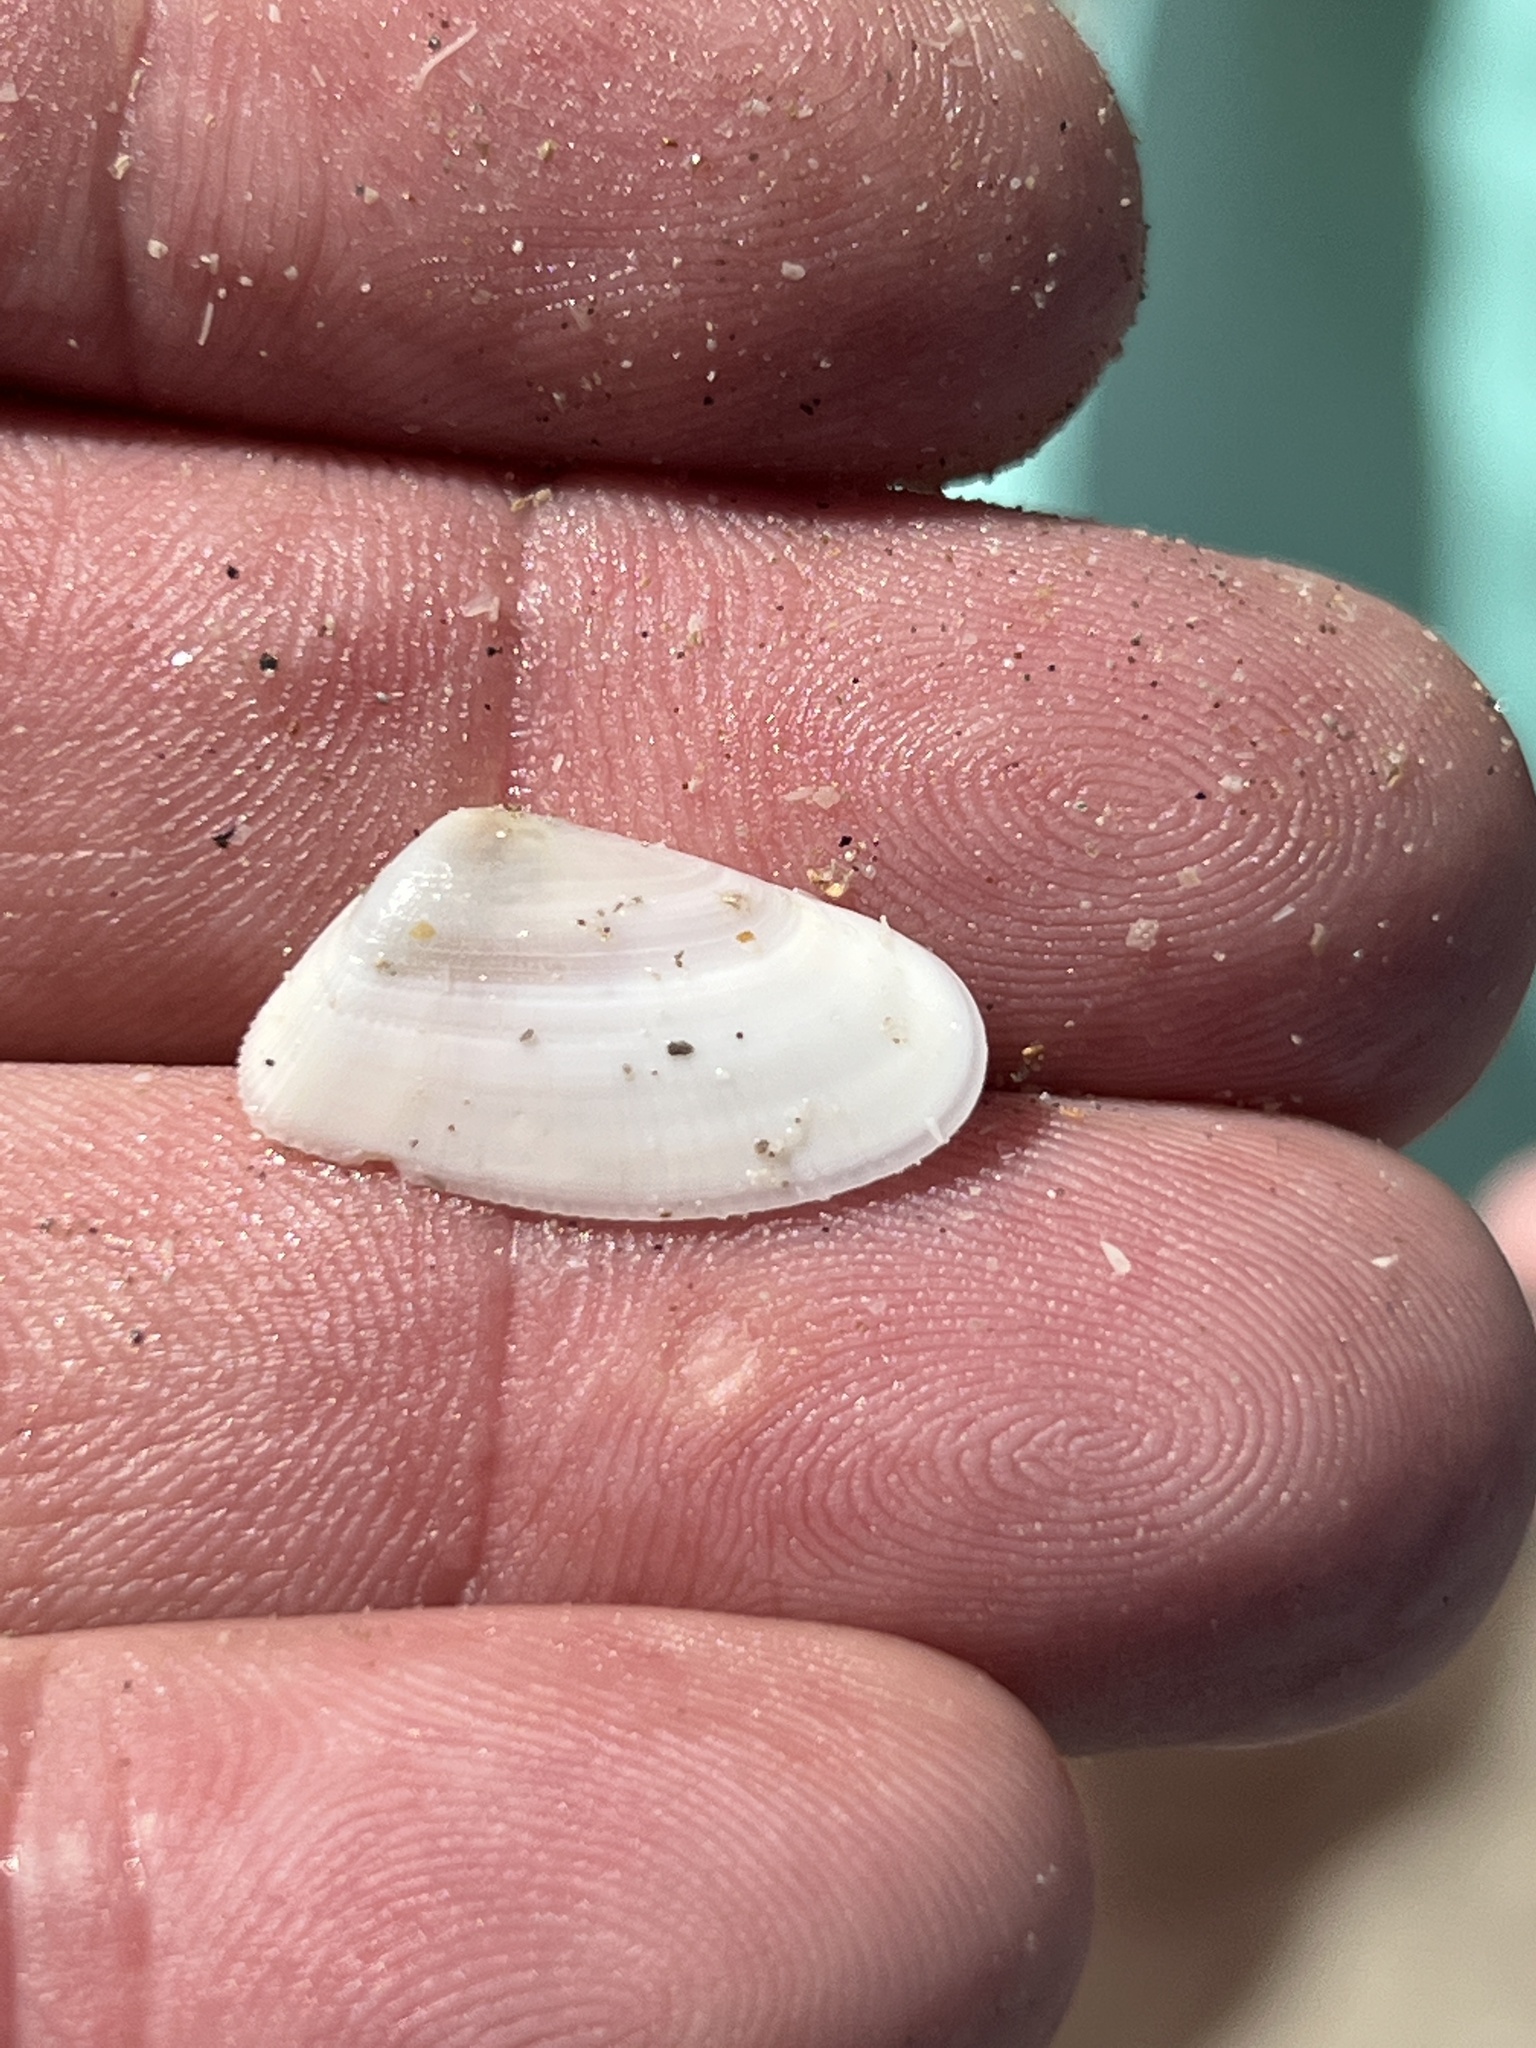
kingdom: Animalia
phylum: Mollusca
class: Bivalvia
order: Cardiida
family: Donacidae
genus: Donax
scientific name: Donax variabilis
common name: Butterfly shell
